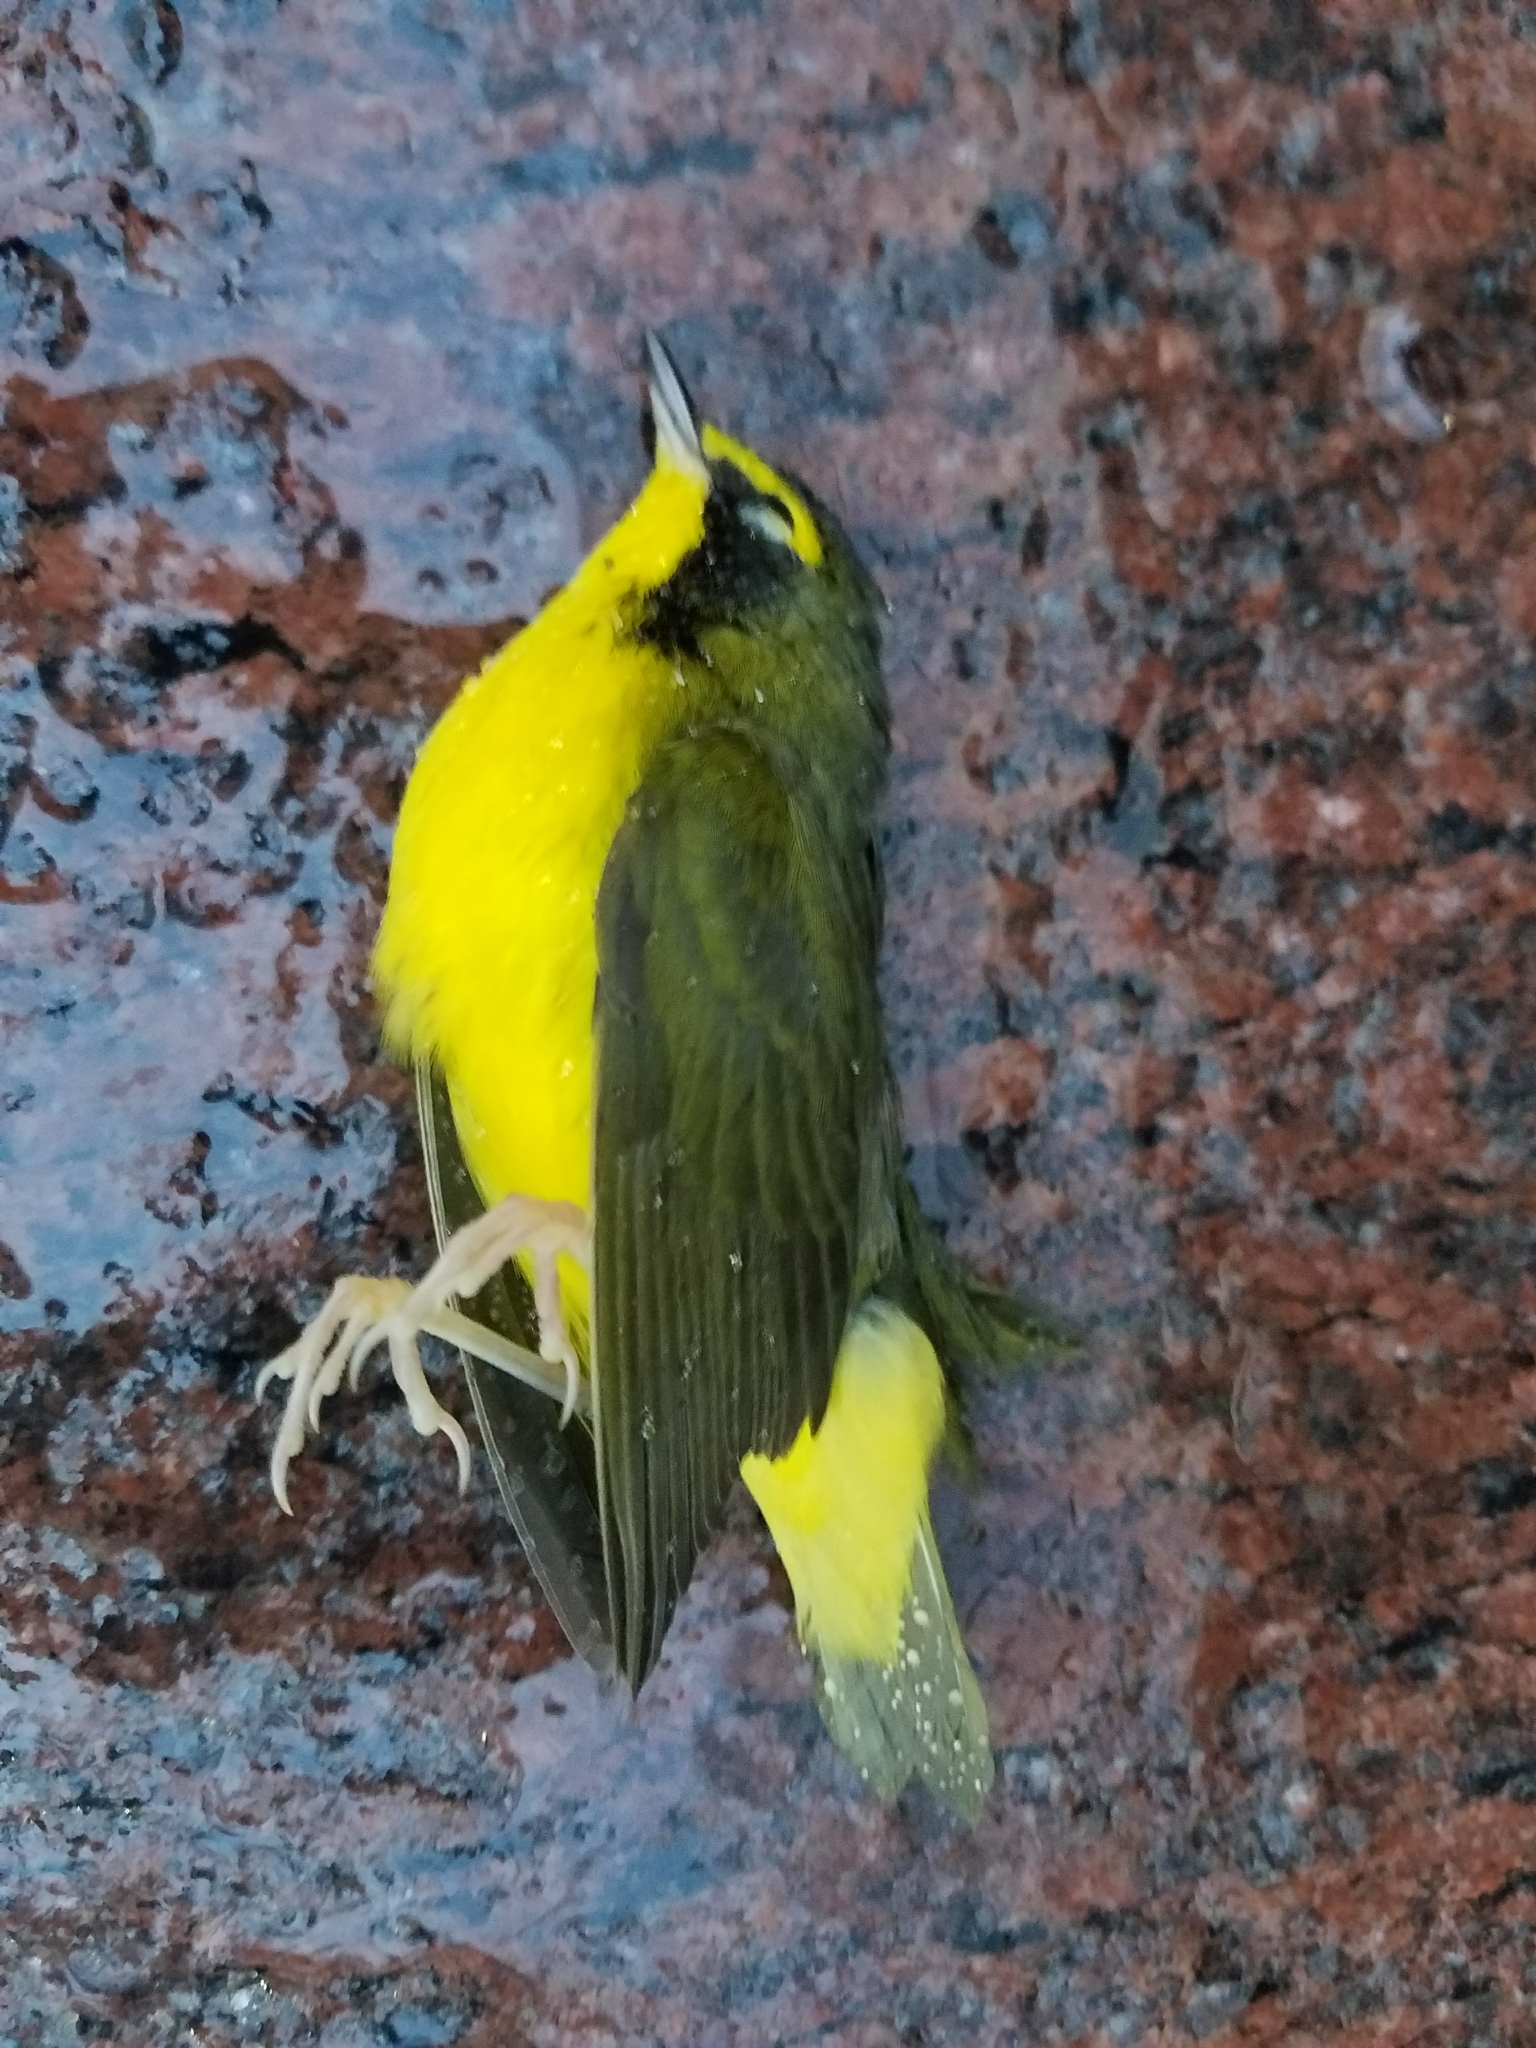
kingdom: Animalia
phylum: Chordata
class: Aves
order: Passeriformes
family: Parulidae
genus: Geothlypis
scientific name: Geothlypis formosa
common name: Kentucky warbler
